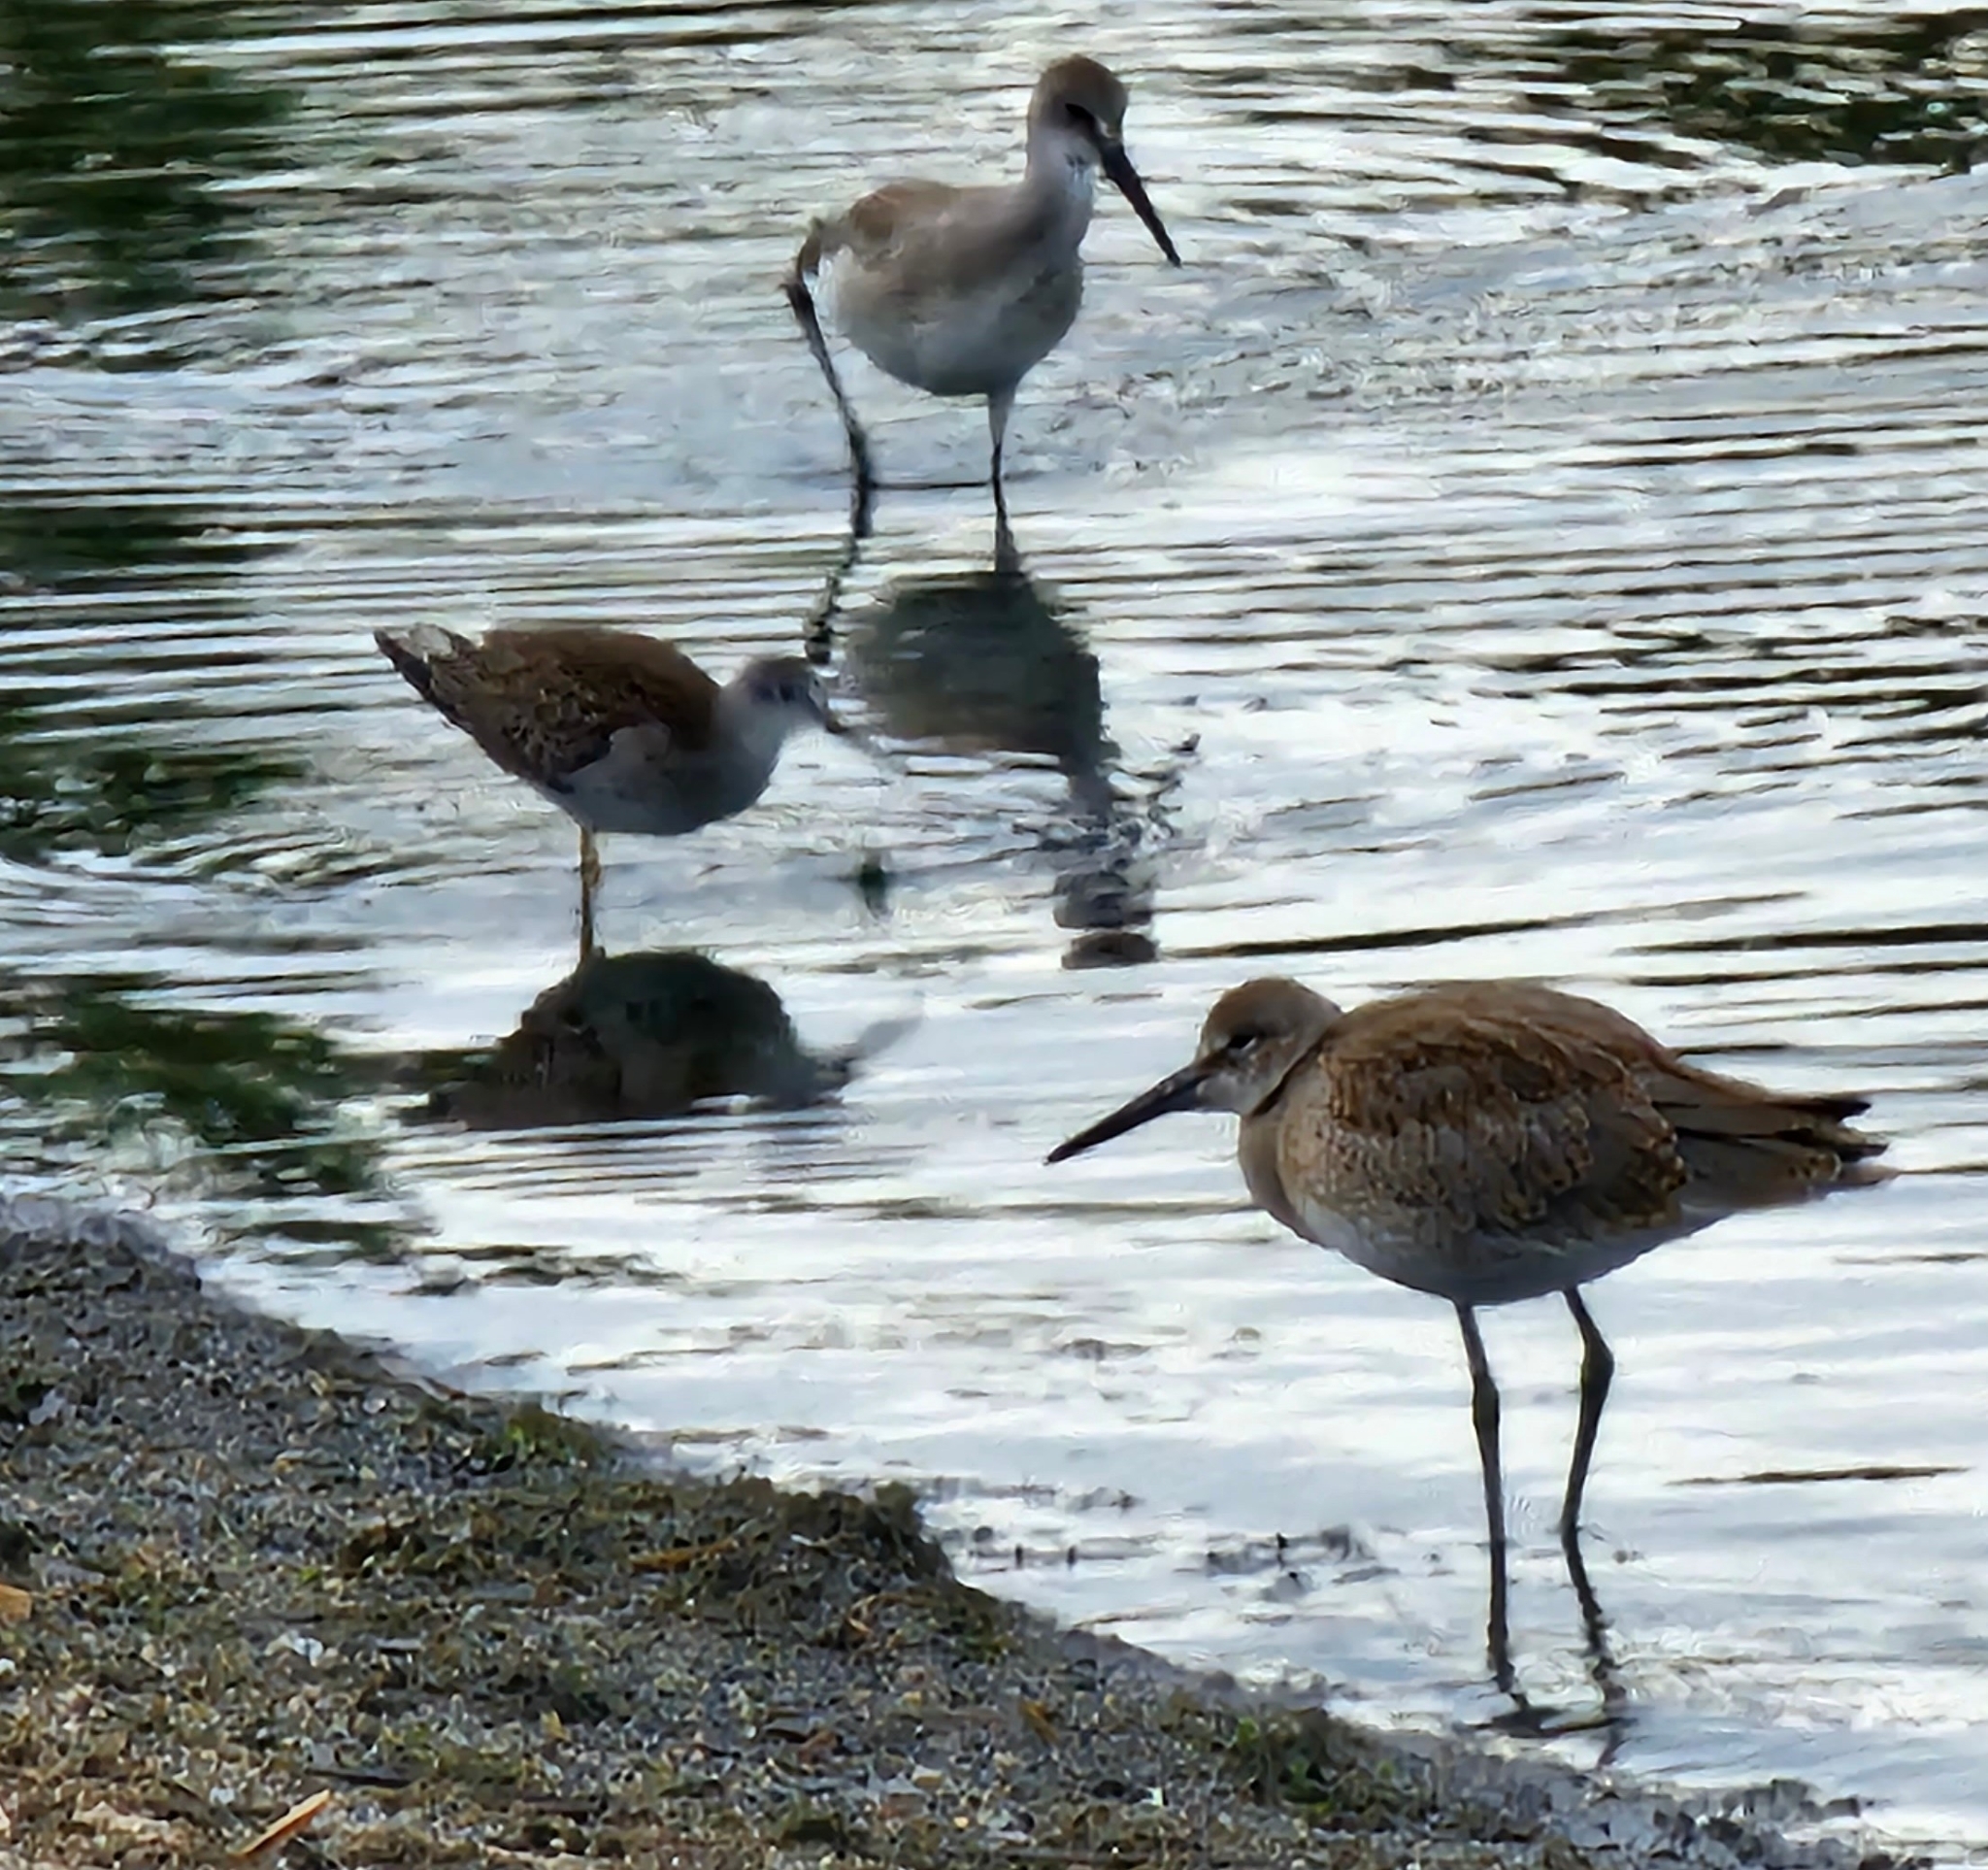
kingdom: Animalia
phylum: Chordata
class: Aves
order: Charadriiformes
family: Scolopacidae
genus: Tringa
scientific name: Tringa semipalmata
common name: Willet
